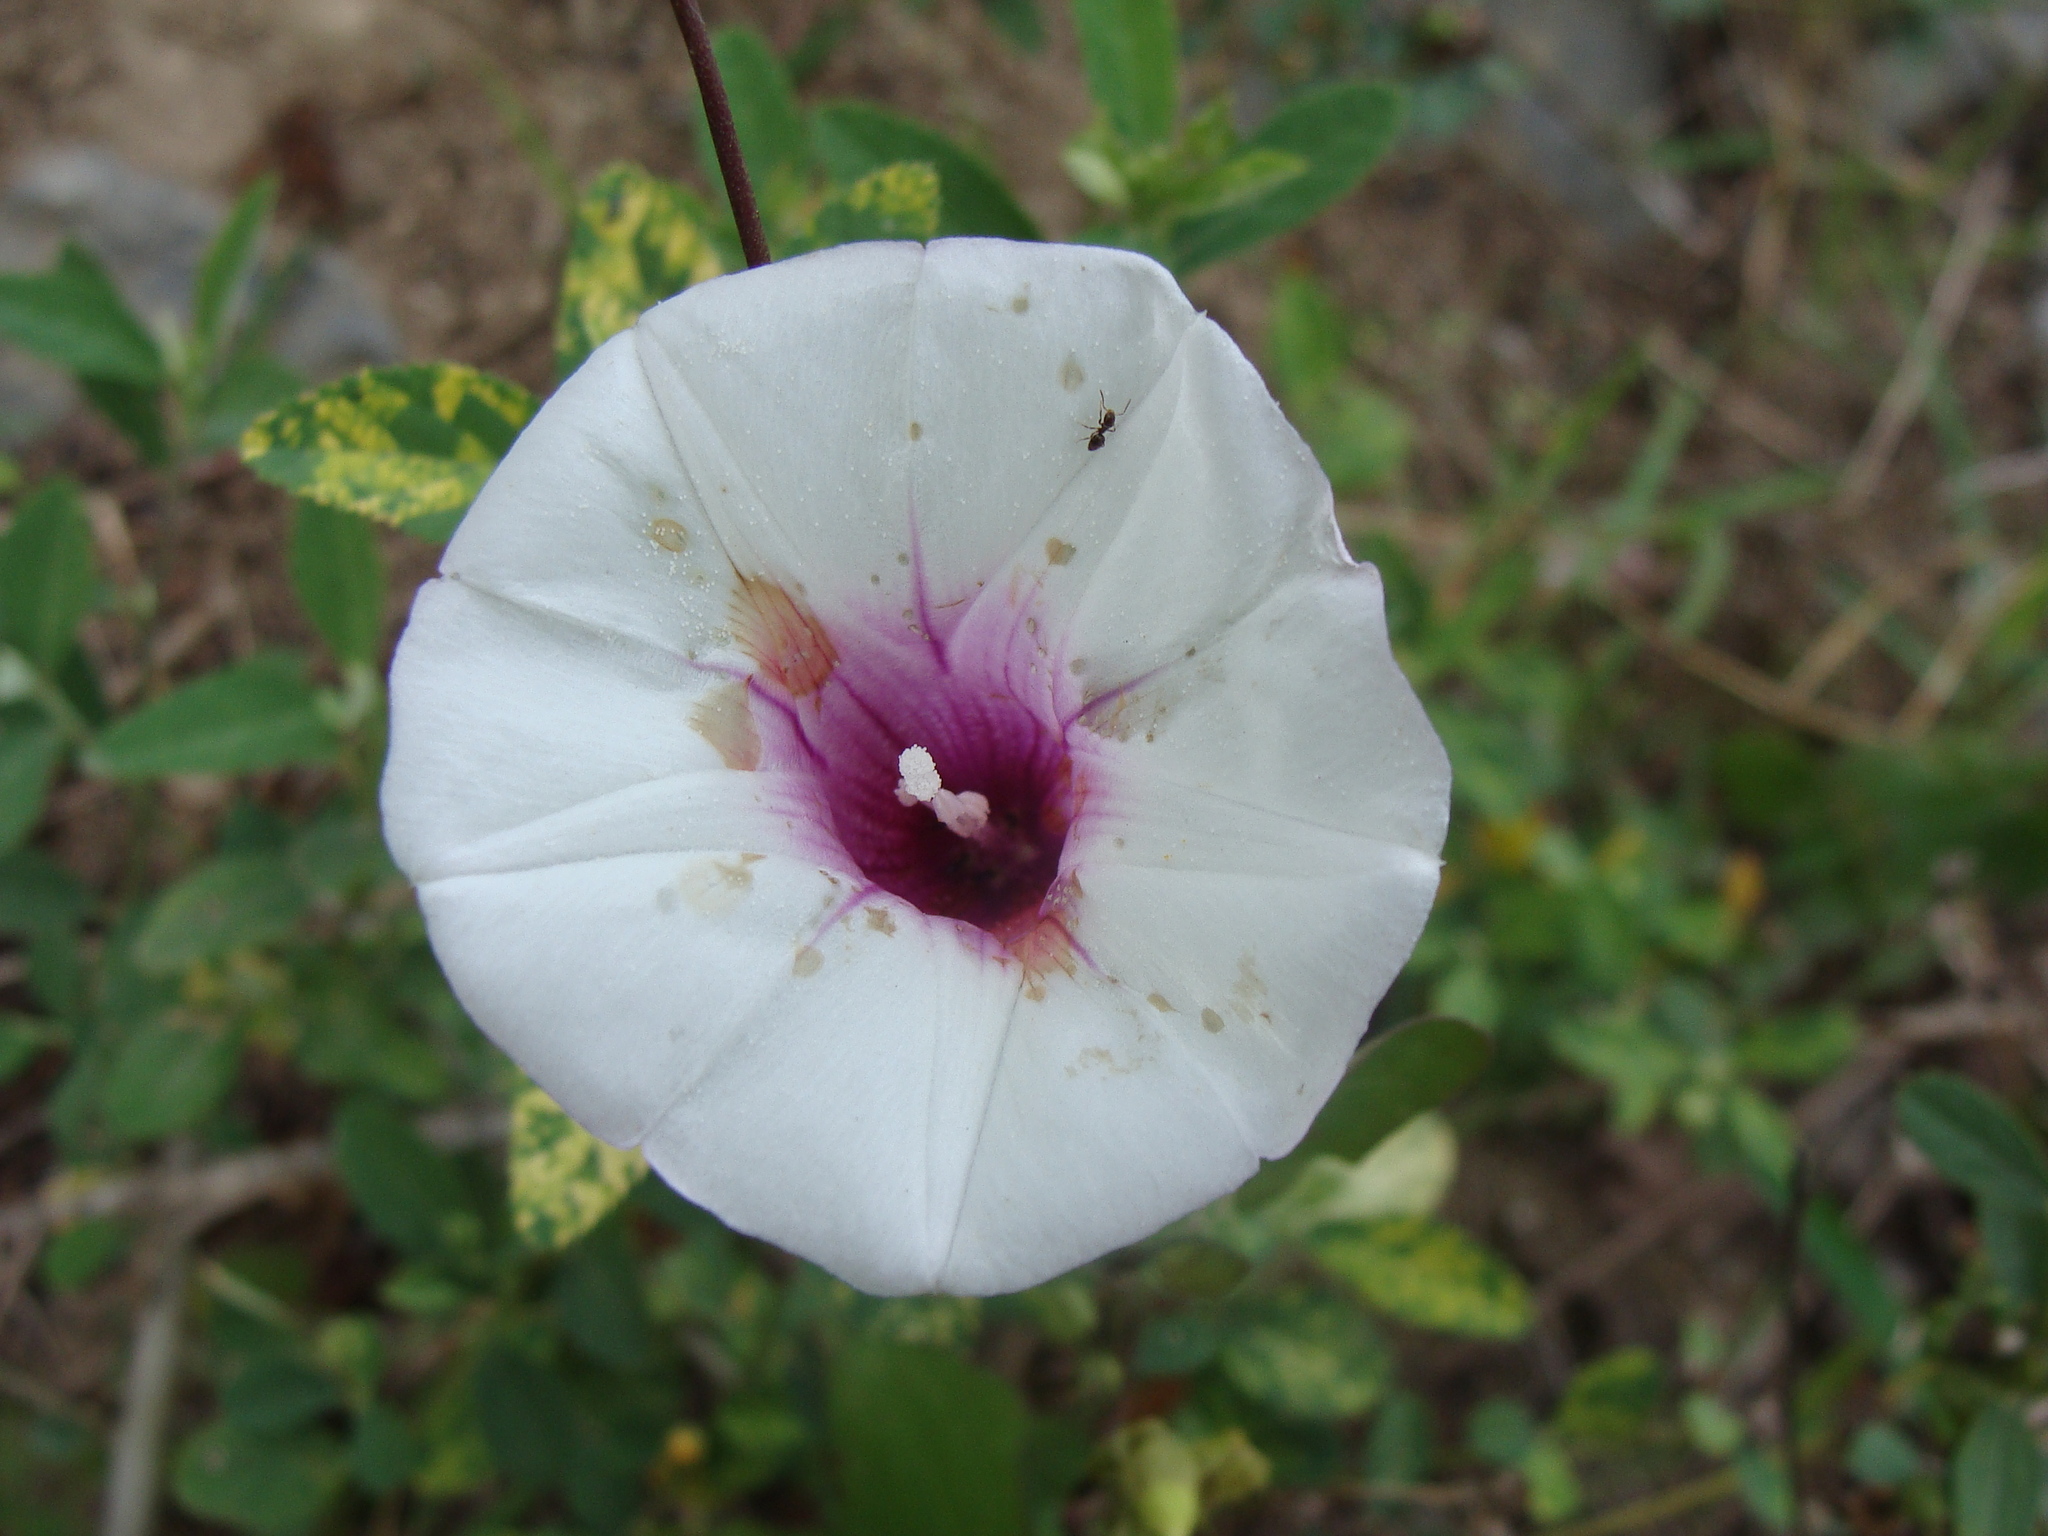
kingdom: Plantae
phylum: Tracheophyta
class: Magnoliopsida
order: Solanales
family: Convolvulaceae
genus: Ipomoea
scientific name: Ipomoea batatas
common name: Sweet-potato
